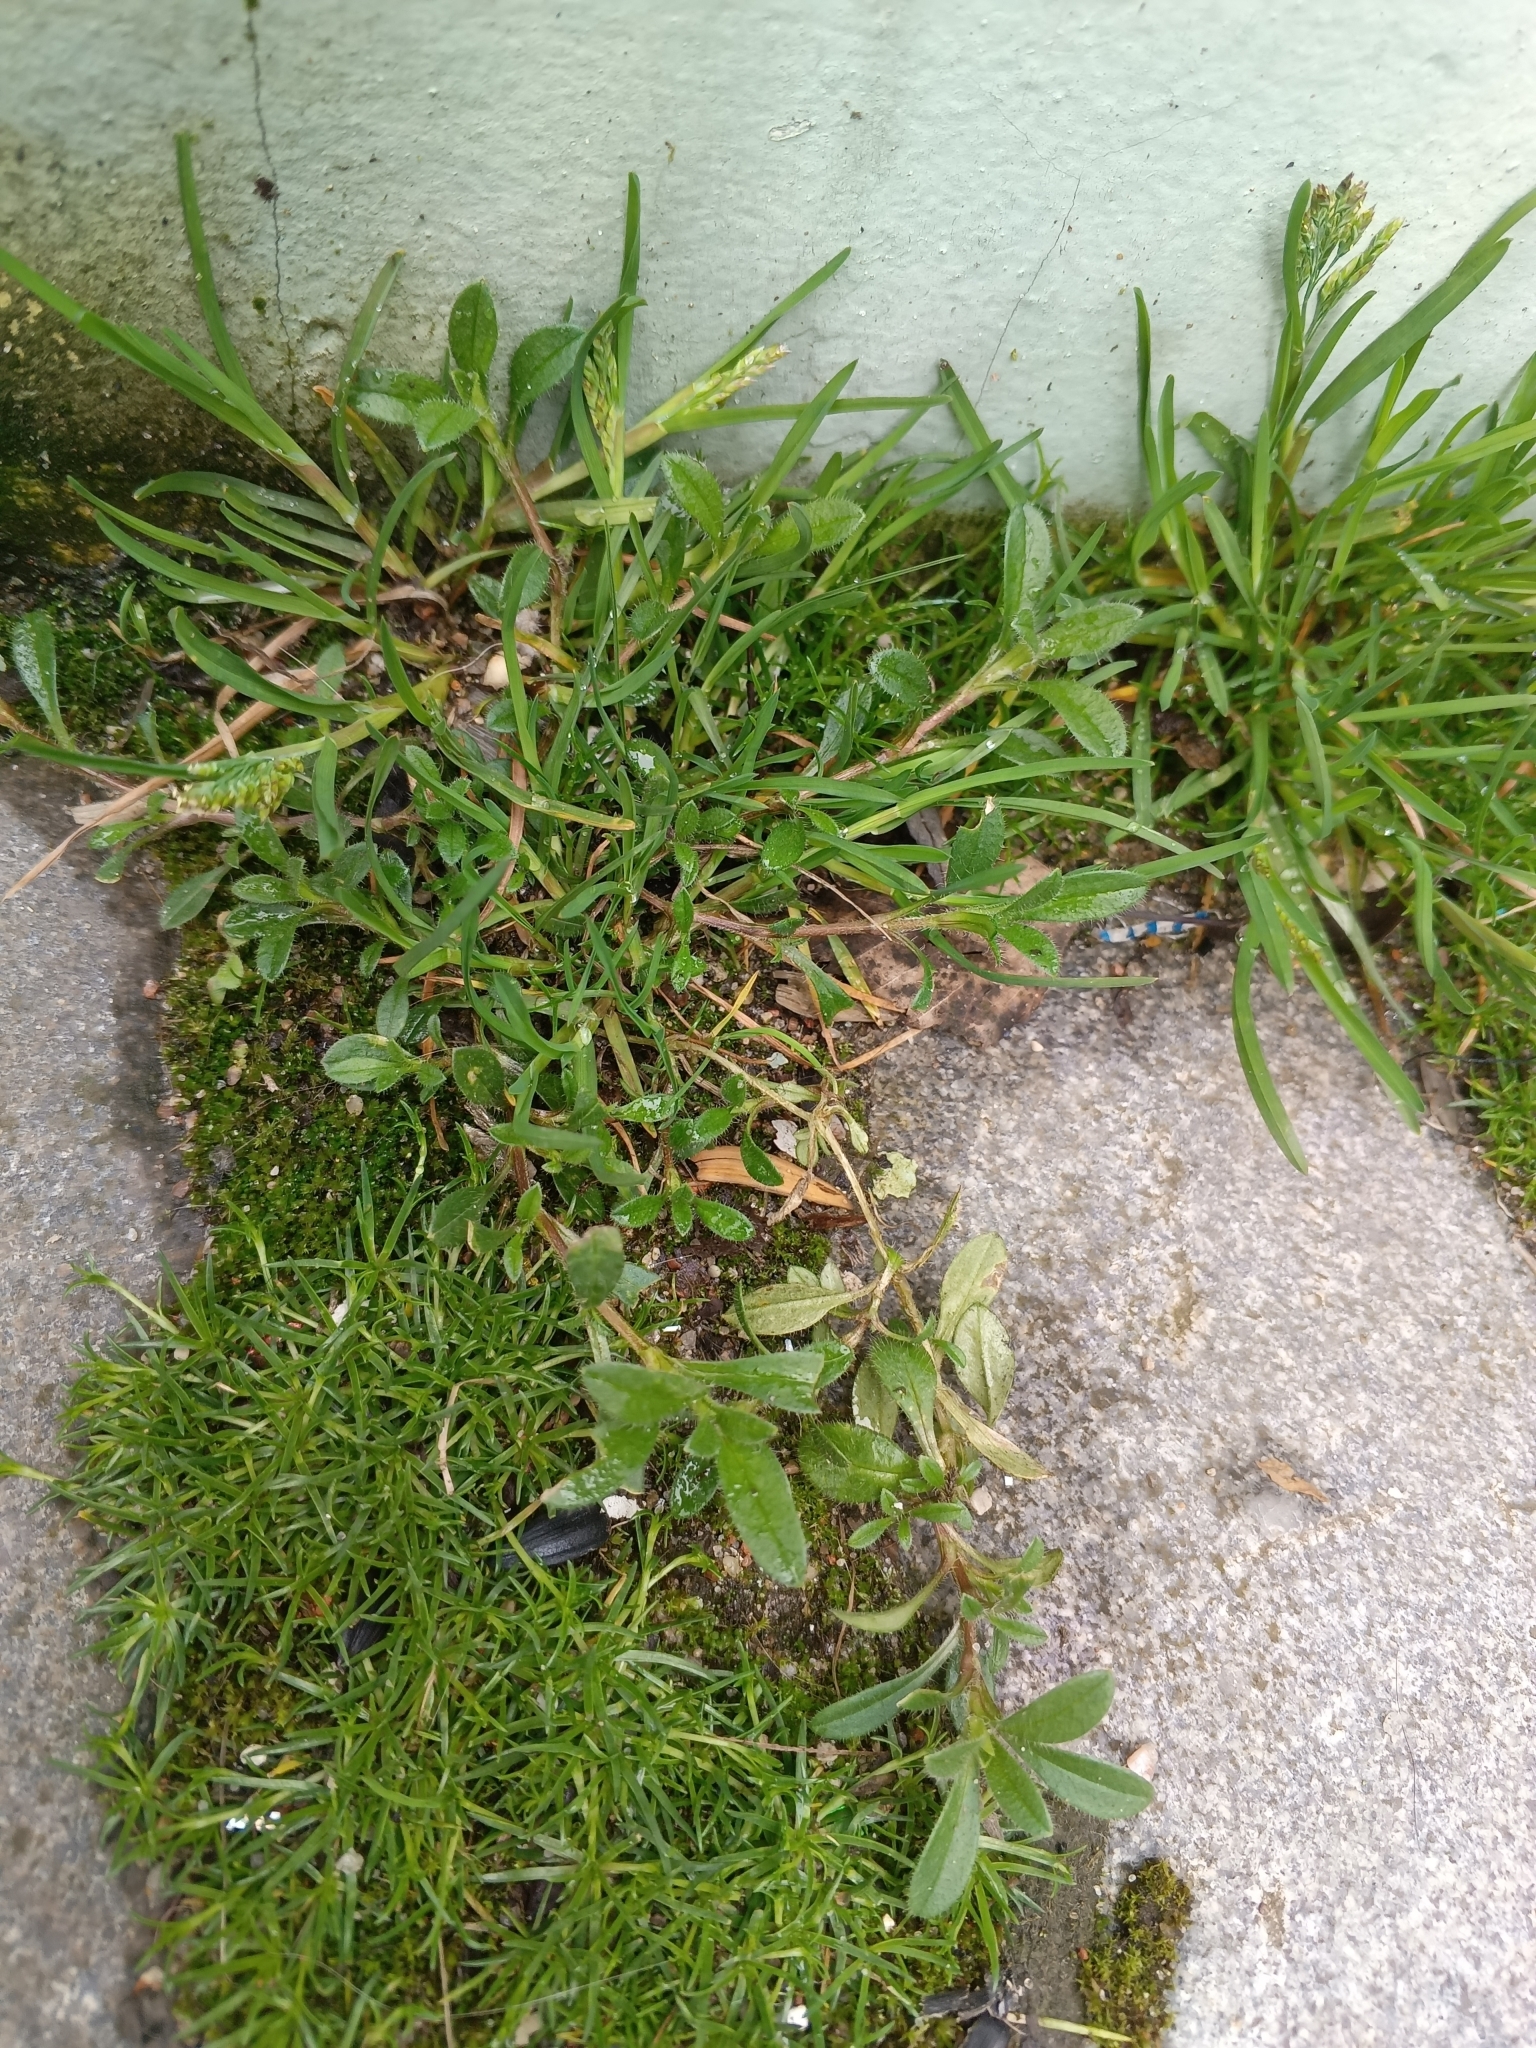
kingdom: Plantae
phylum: Tracheophyta
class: Magnoliopsida
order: Caryophyllales
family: Caryophyllaceae
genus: Cerastium
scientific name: Cerastium holosteoides
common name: Big chickweed
